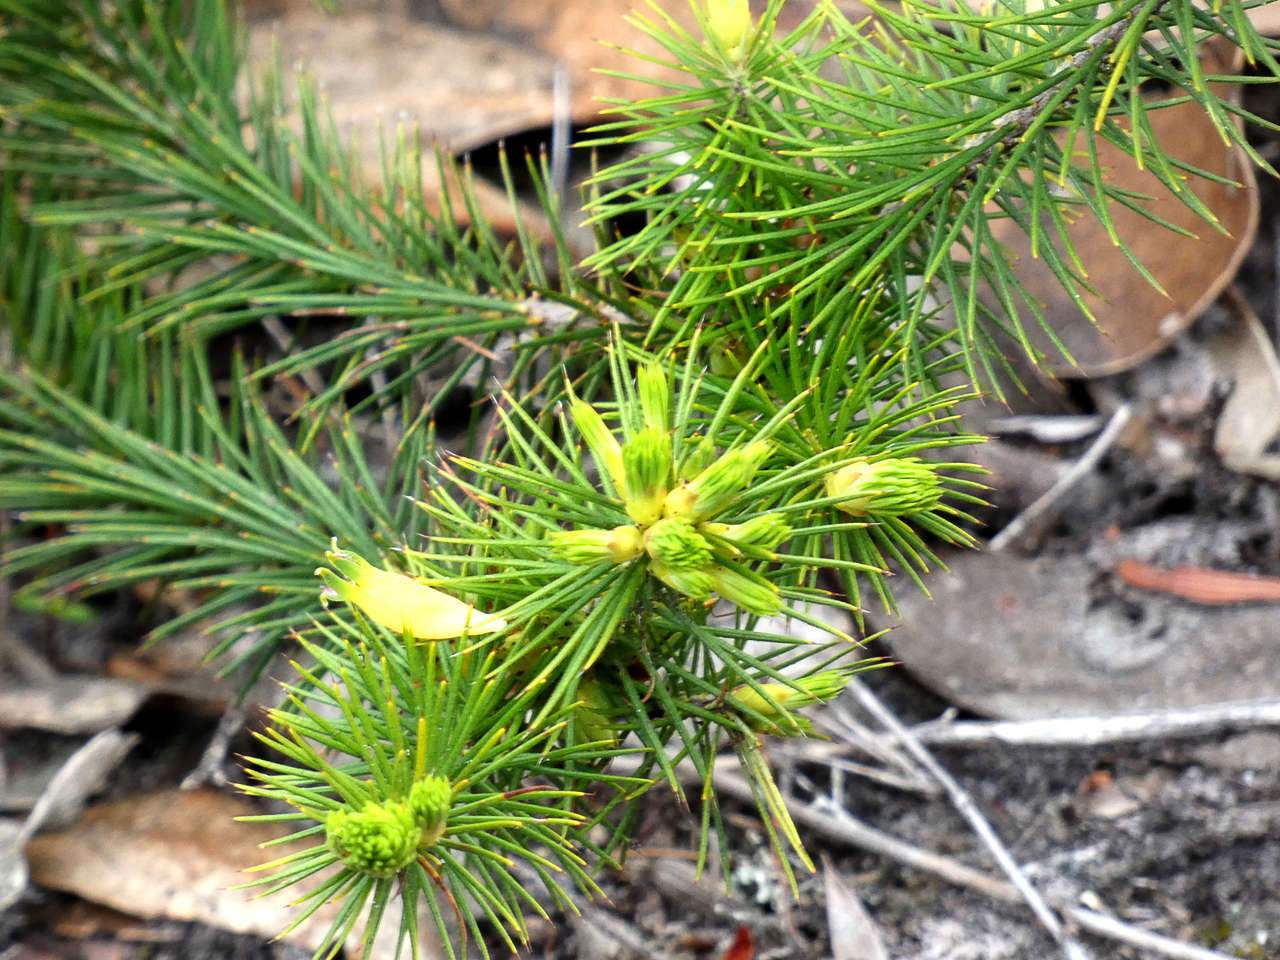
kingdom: Plantae
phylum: Tracheophyta
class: Magnoliopsida
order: Ericales
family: Ericaceae
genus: Stenanthera
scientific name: Stenanthera pinifolia
